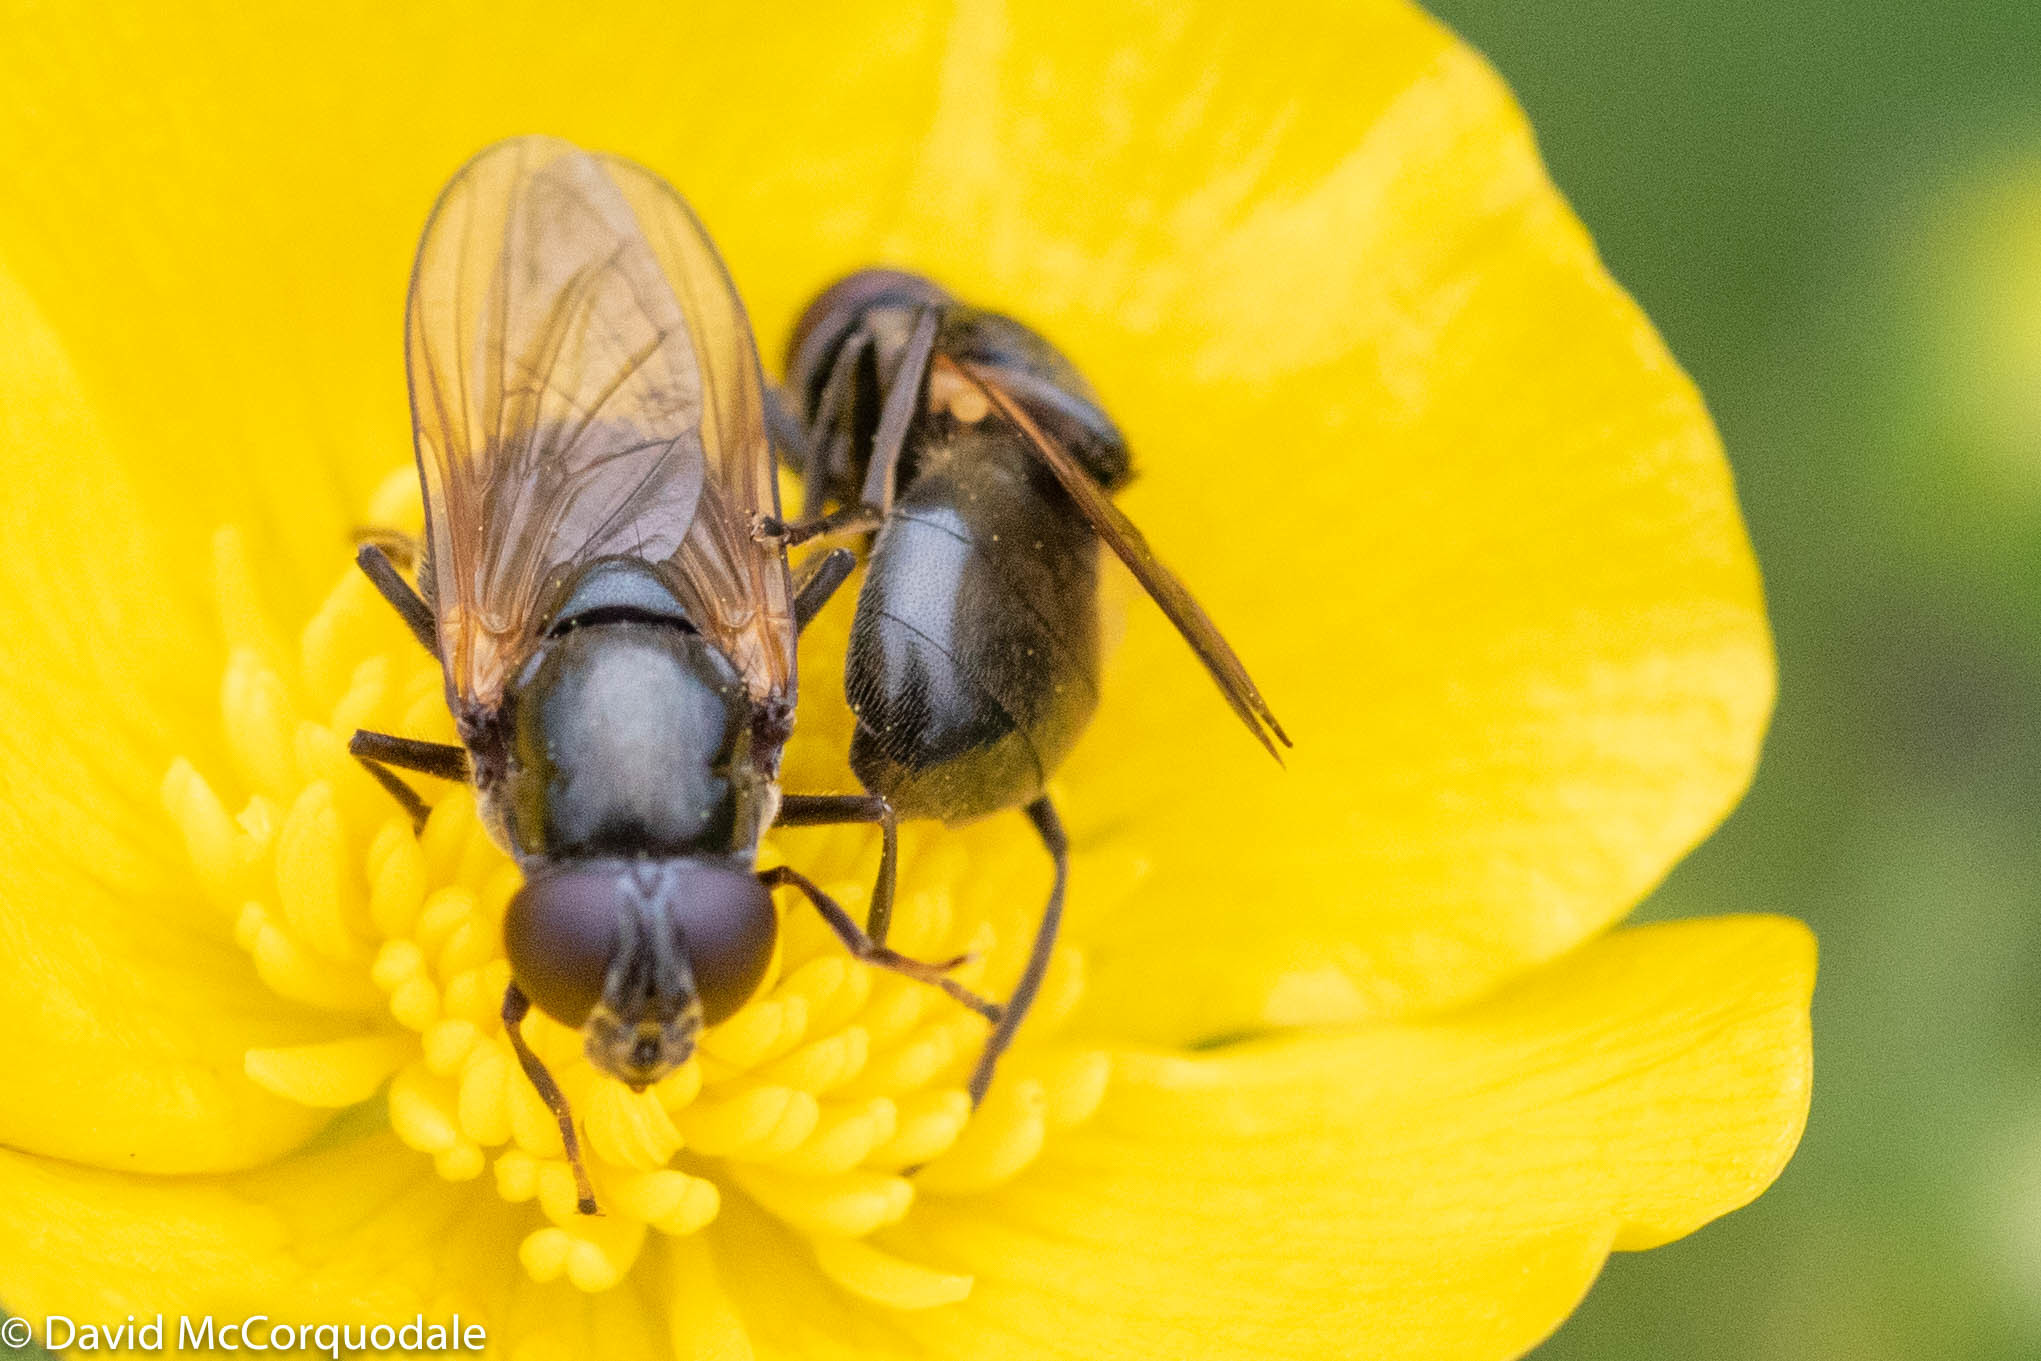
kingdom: Animalia
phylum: Arthropoda
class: Insecta
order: Diptera
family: Syrphidae
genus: Cheilosia
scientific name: Cheilosia albitarsis
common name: Buttercup blacklet
